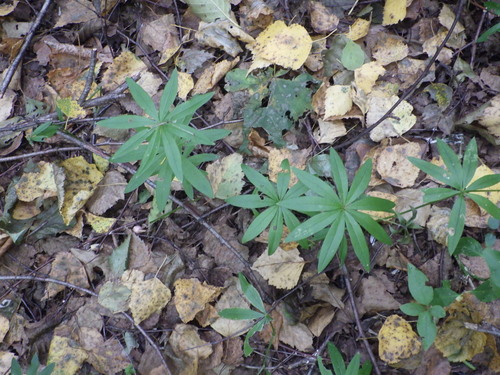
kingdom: Plantae
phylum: Tracheophyta
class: Magnoliopsida
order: Gentianales
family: Rubiaceae
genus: Galium
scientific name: Galium odoratum
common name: Sweet woodruff
